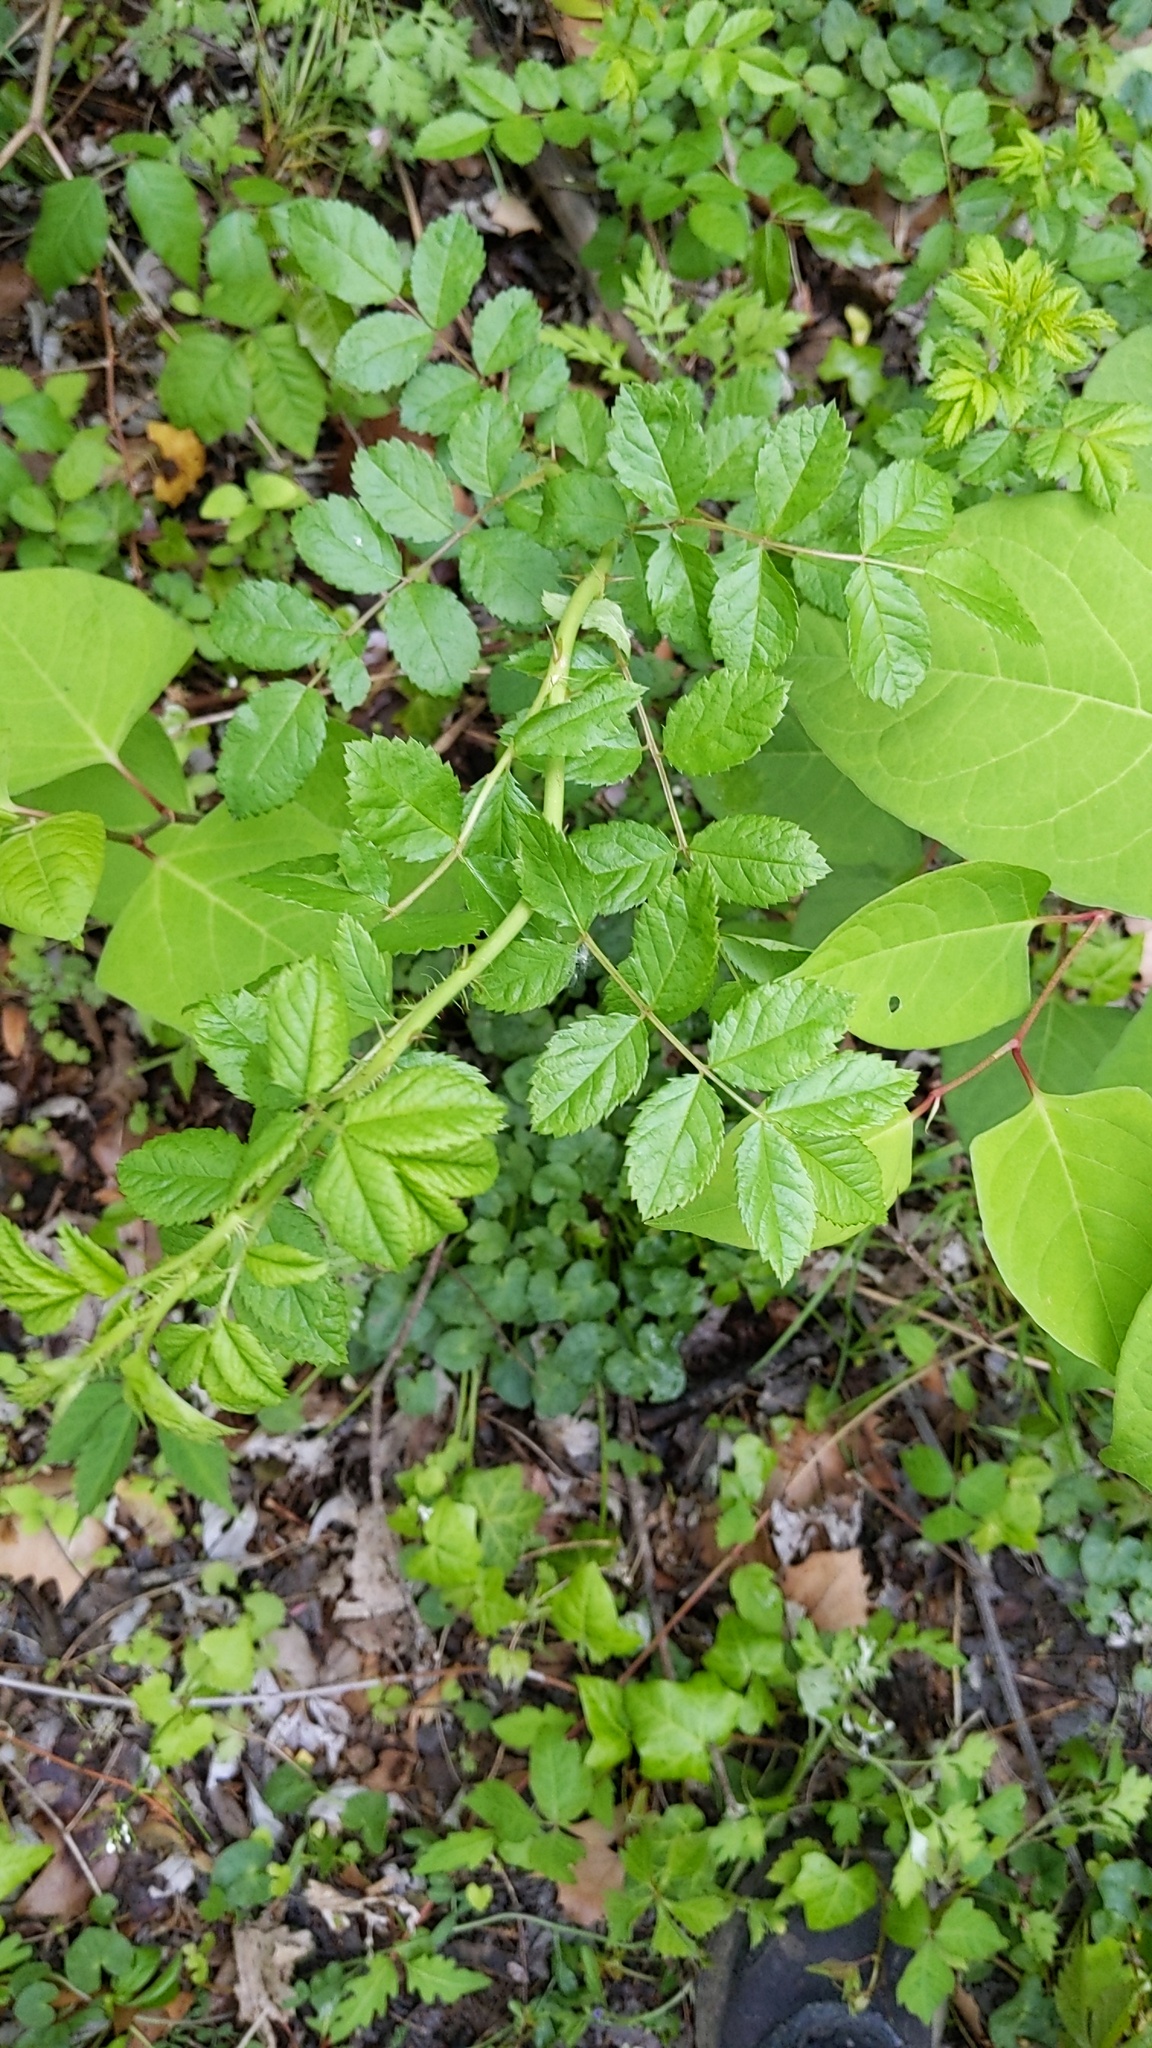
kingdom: Plantae
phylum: Tracheophyta
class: Magnoliopsida
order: Rosales
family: Rosaceae
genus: Rosa
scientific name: Rosa multiflora
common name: Multiflora rose
